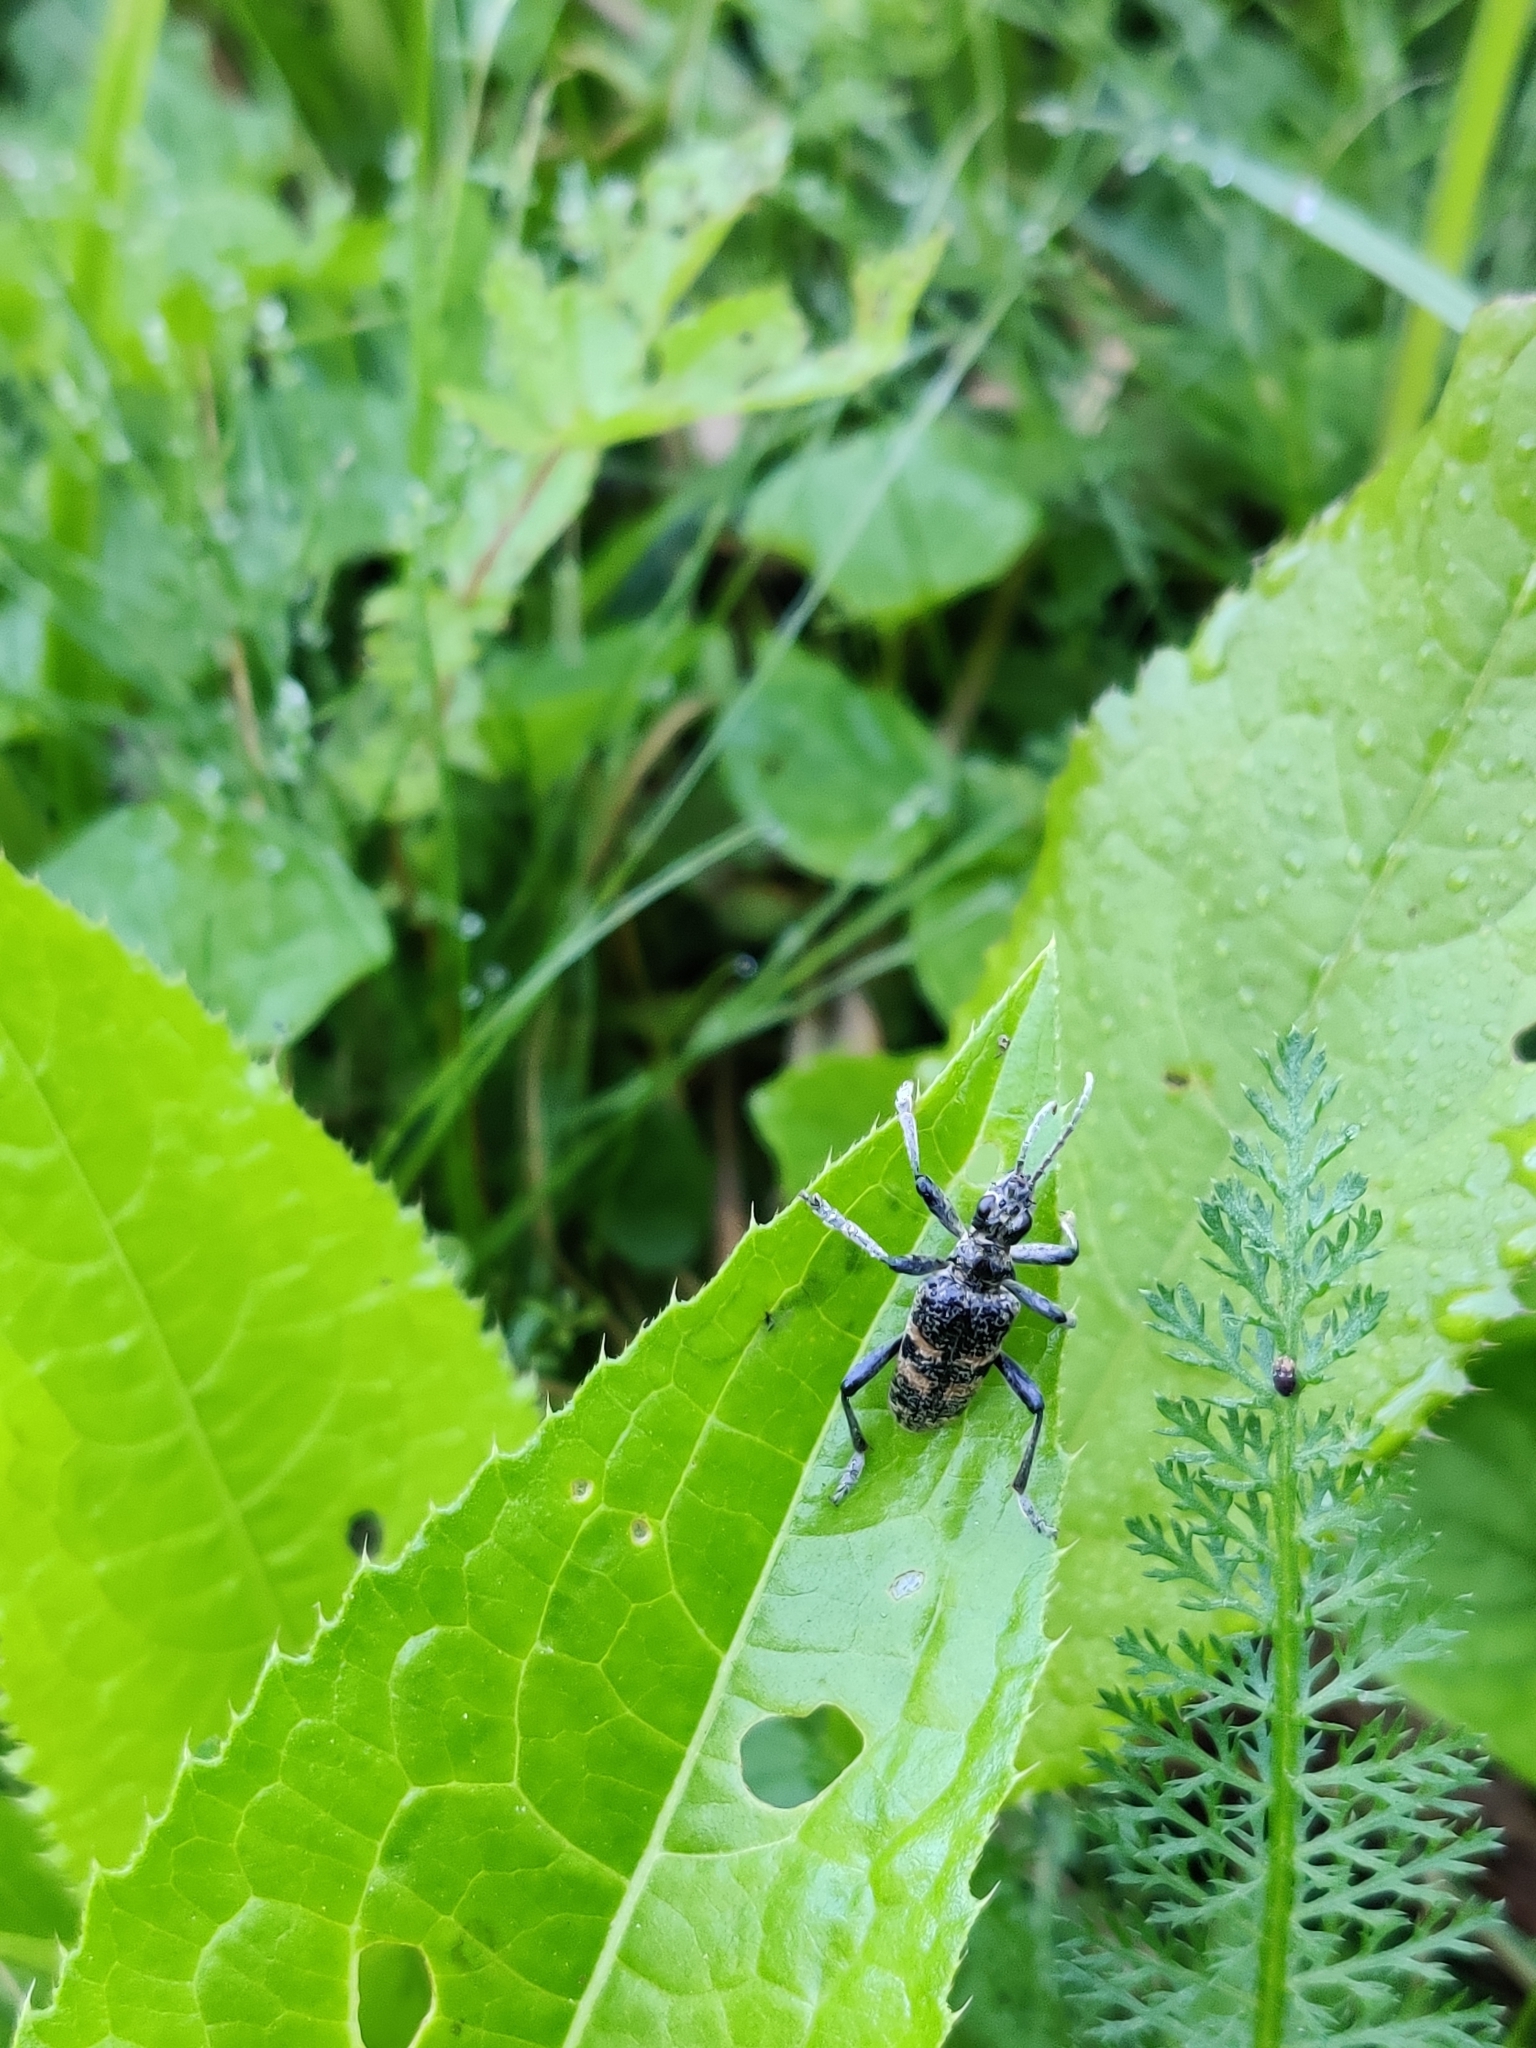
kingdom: Animalia
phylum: Arthropoda
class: Insecta
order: Coleoptera
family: Cerambycidae
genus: Rhagium
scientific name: Rhagium mordax
